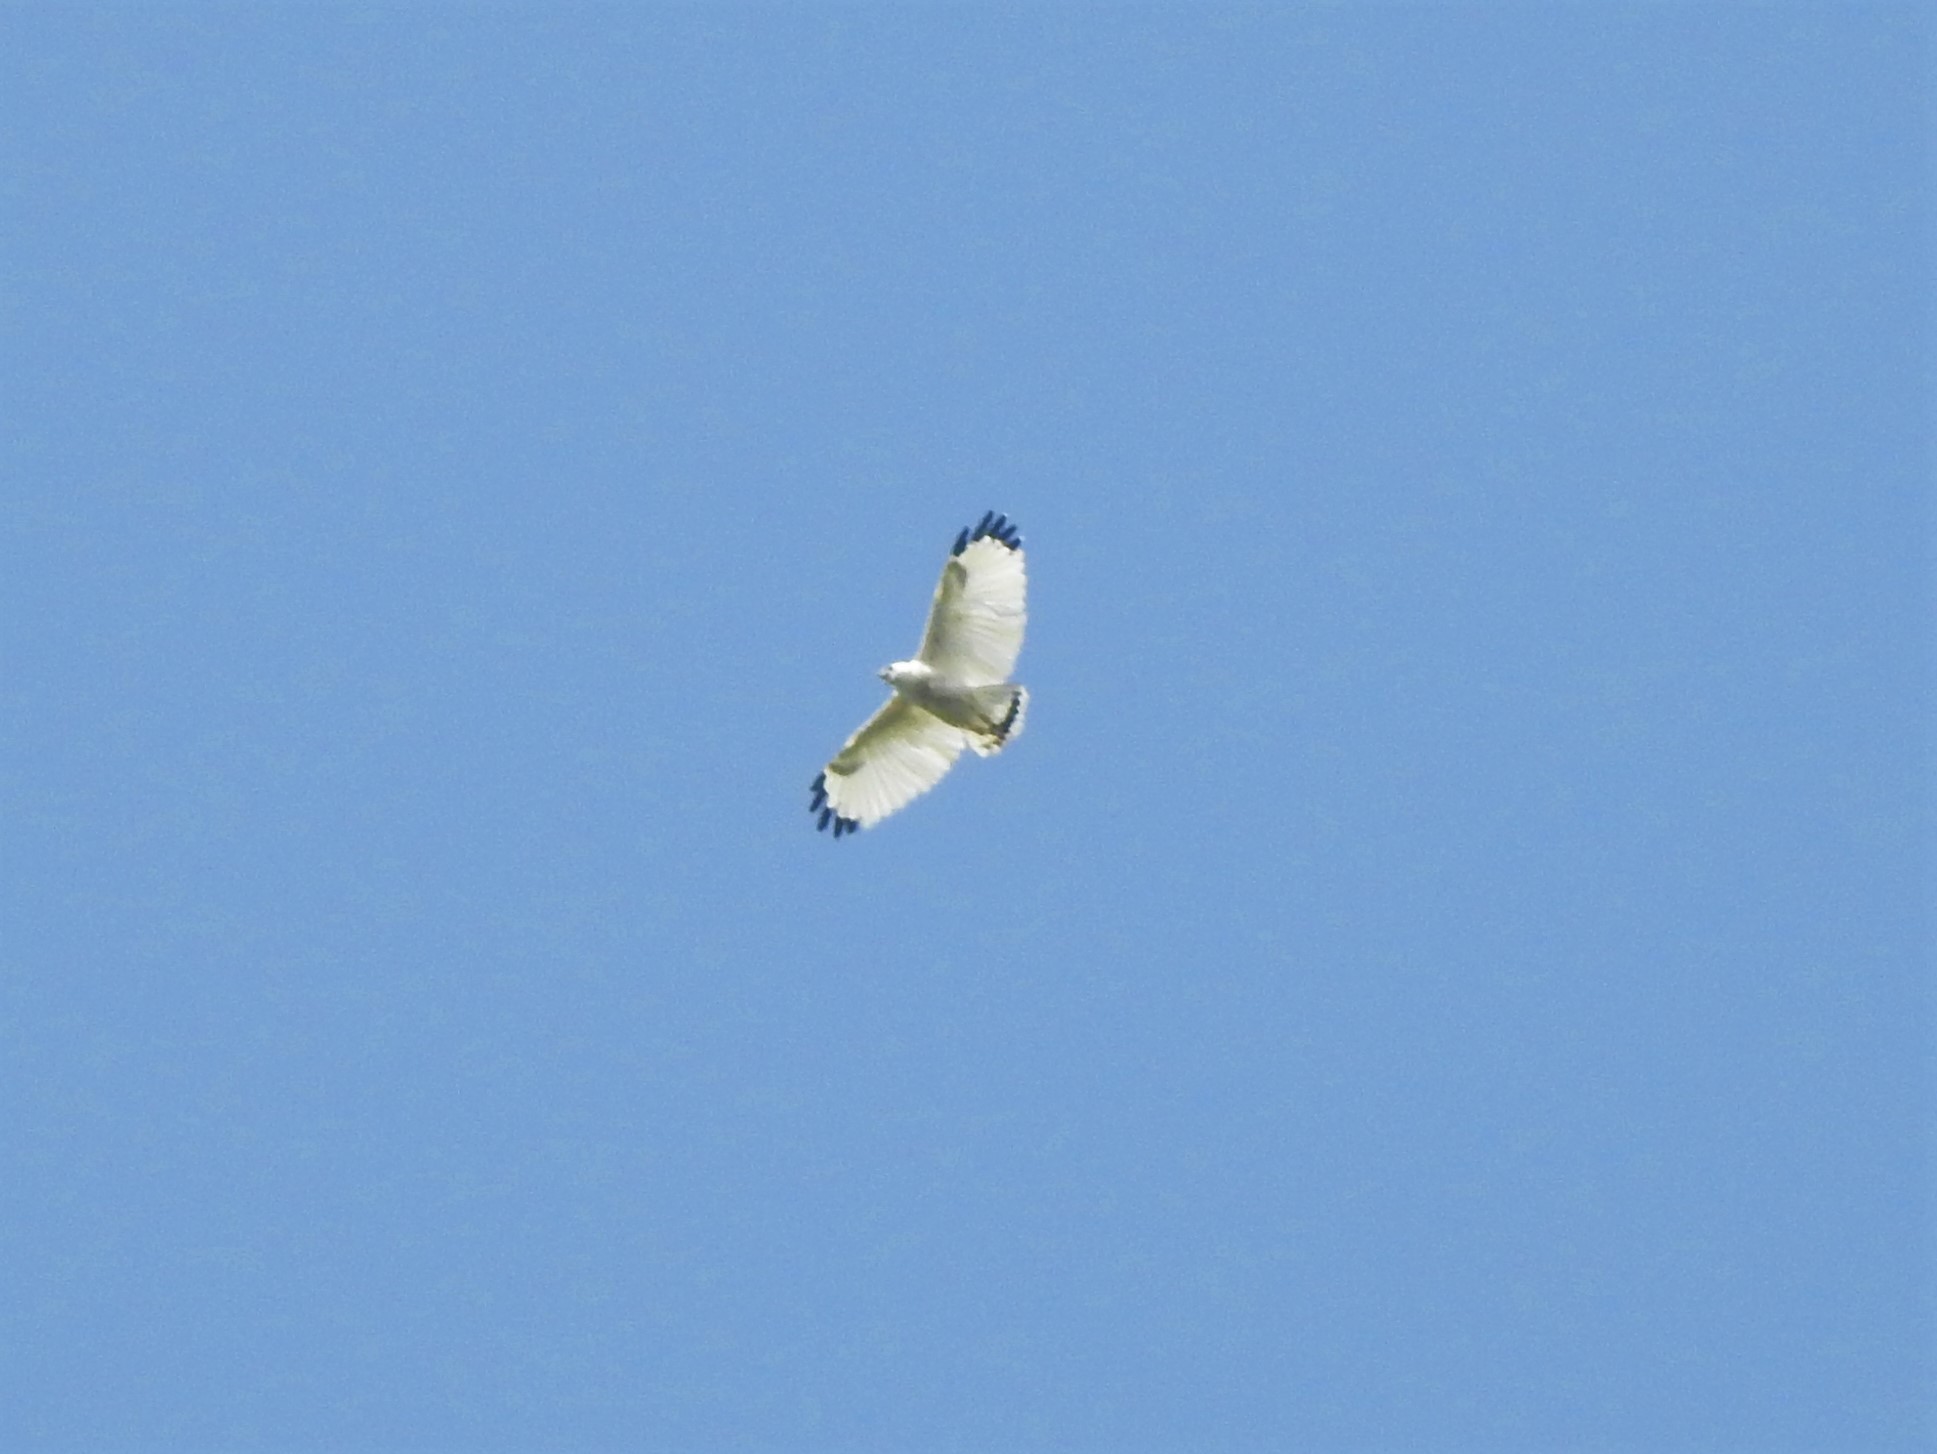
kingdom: Animalia
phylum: Chordata
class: Aves
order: Accipitriformes
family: Accipitridae
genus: Leucopternis
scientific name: Leucopternis albicollis
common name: White hawk
